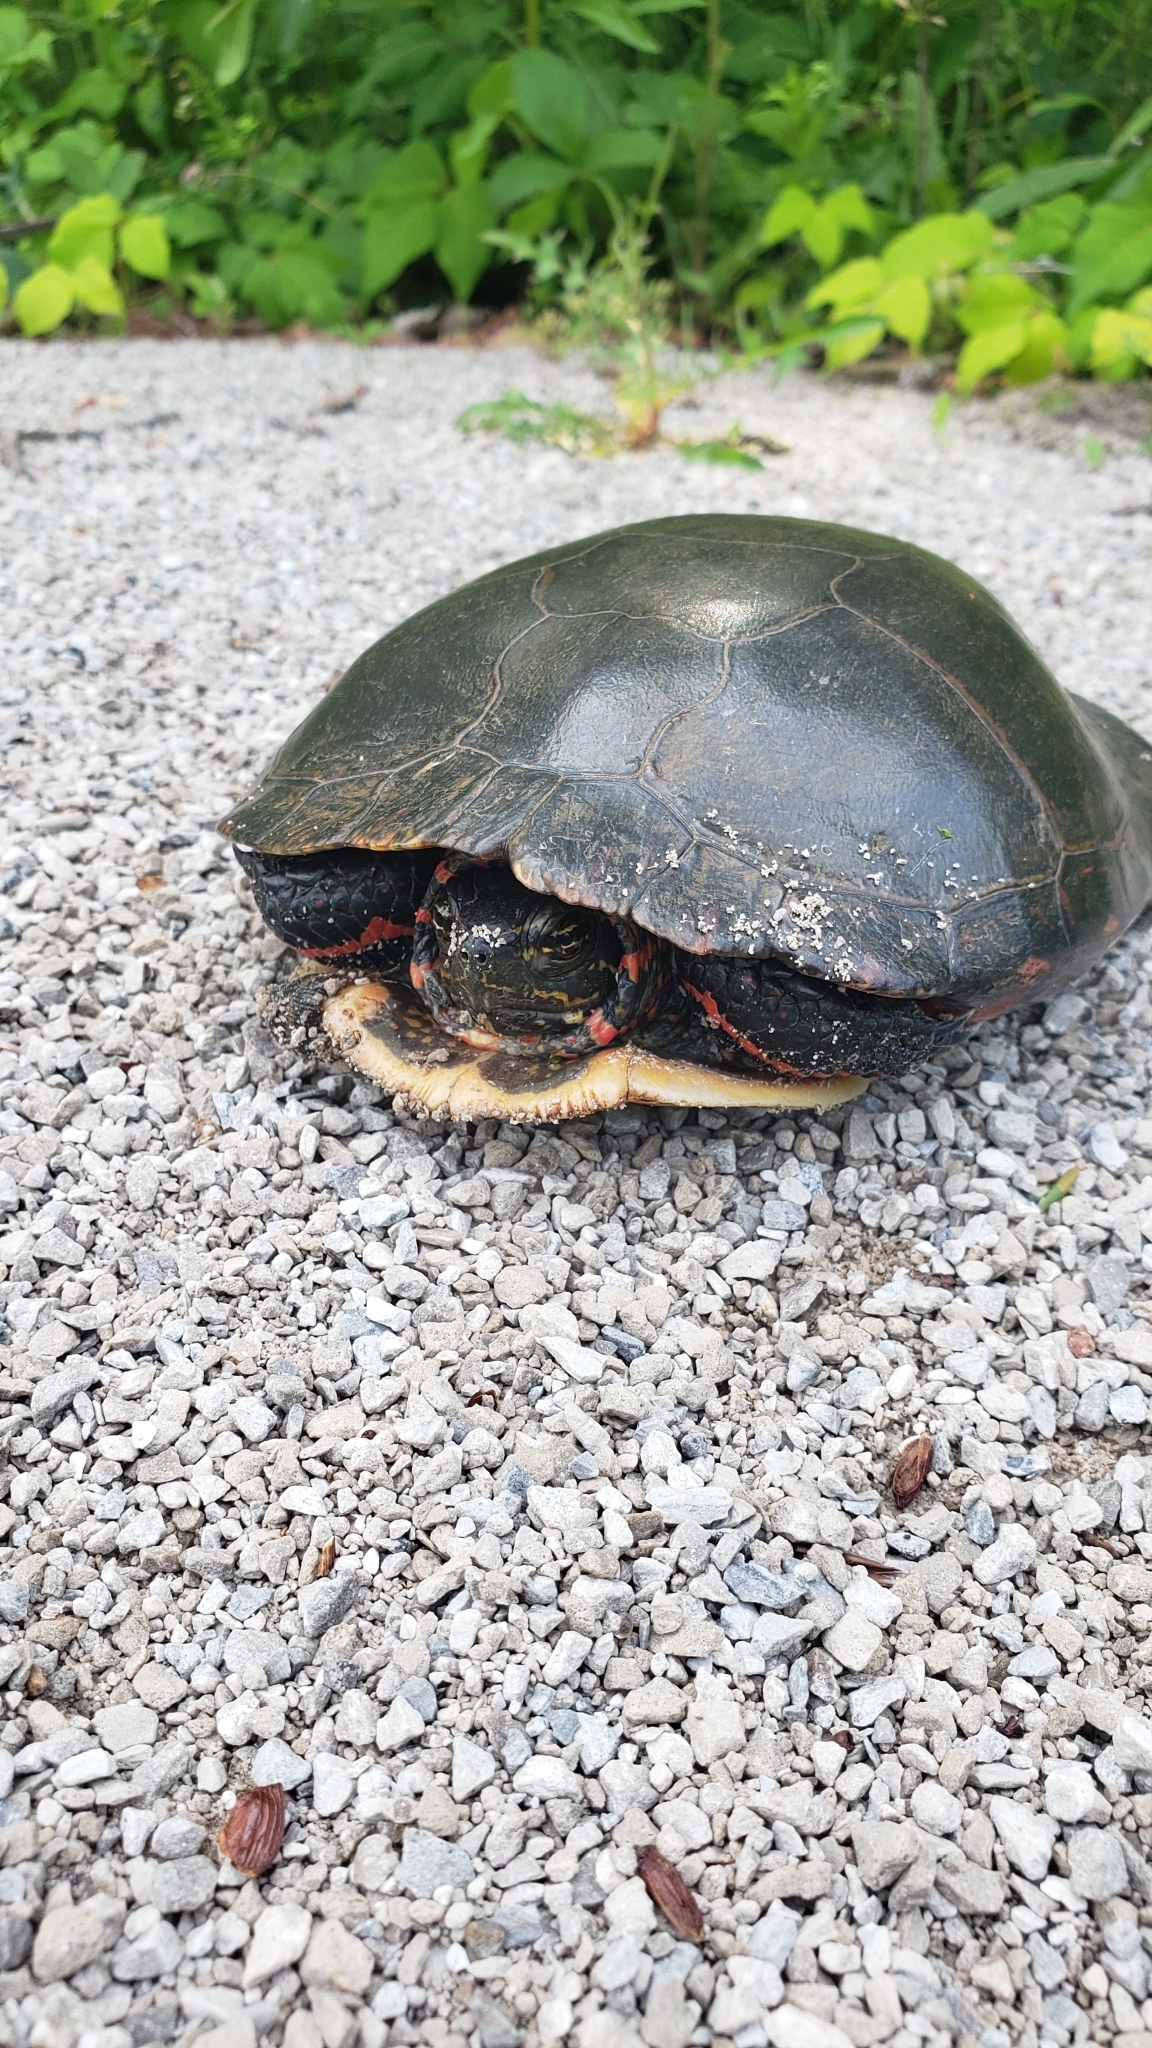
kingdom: Animalia
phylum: Chordata
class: Testudines
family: Emydidae
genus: Chrysemys
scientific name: Chrysemys picta
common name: Painted turtle
